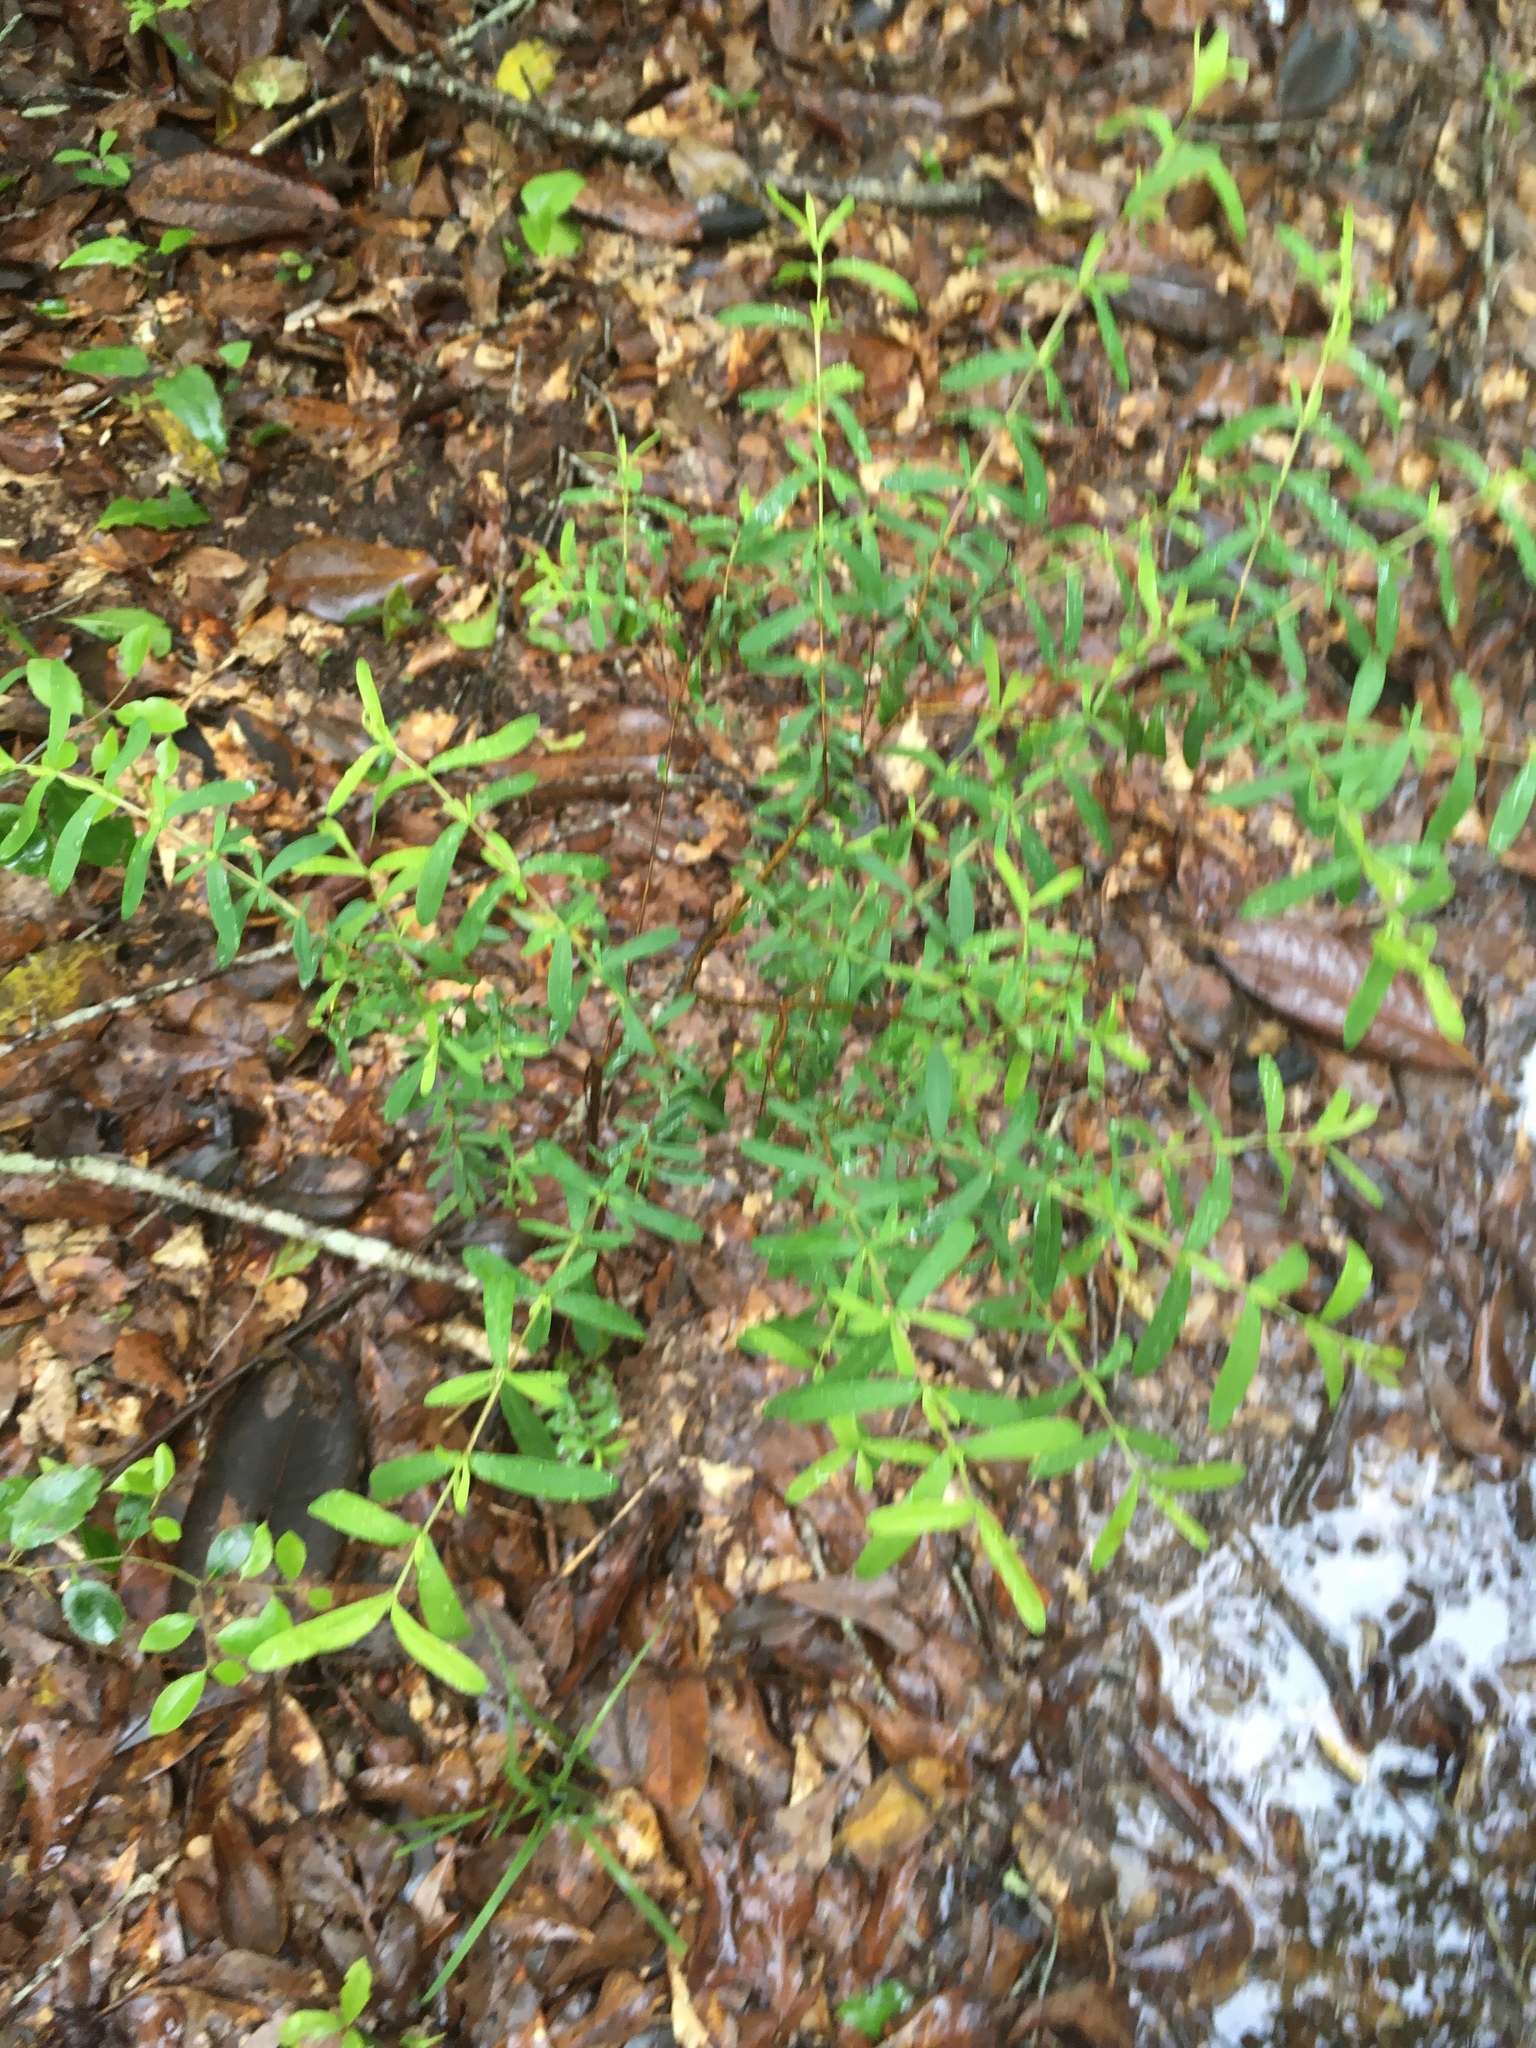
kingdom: Plantae
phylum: Tracheophyta
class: Magnoliopsida
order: Malpighiales
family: Hypericaceae
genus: Hypericum
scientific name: Hypericum hypericoides
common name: St. andrew's cross
